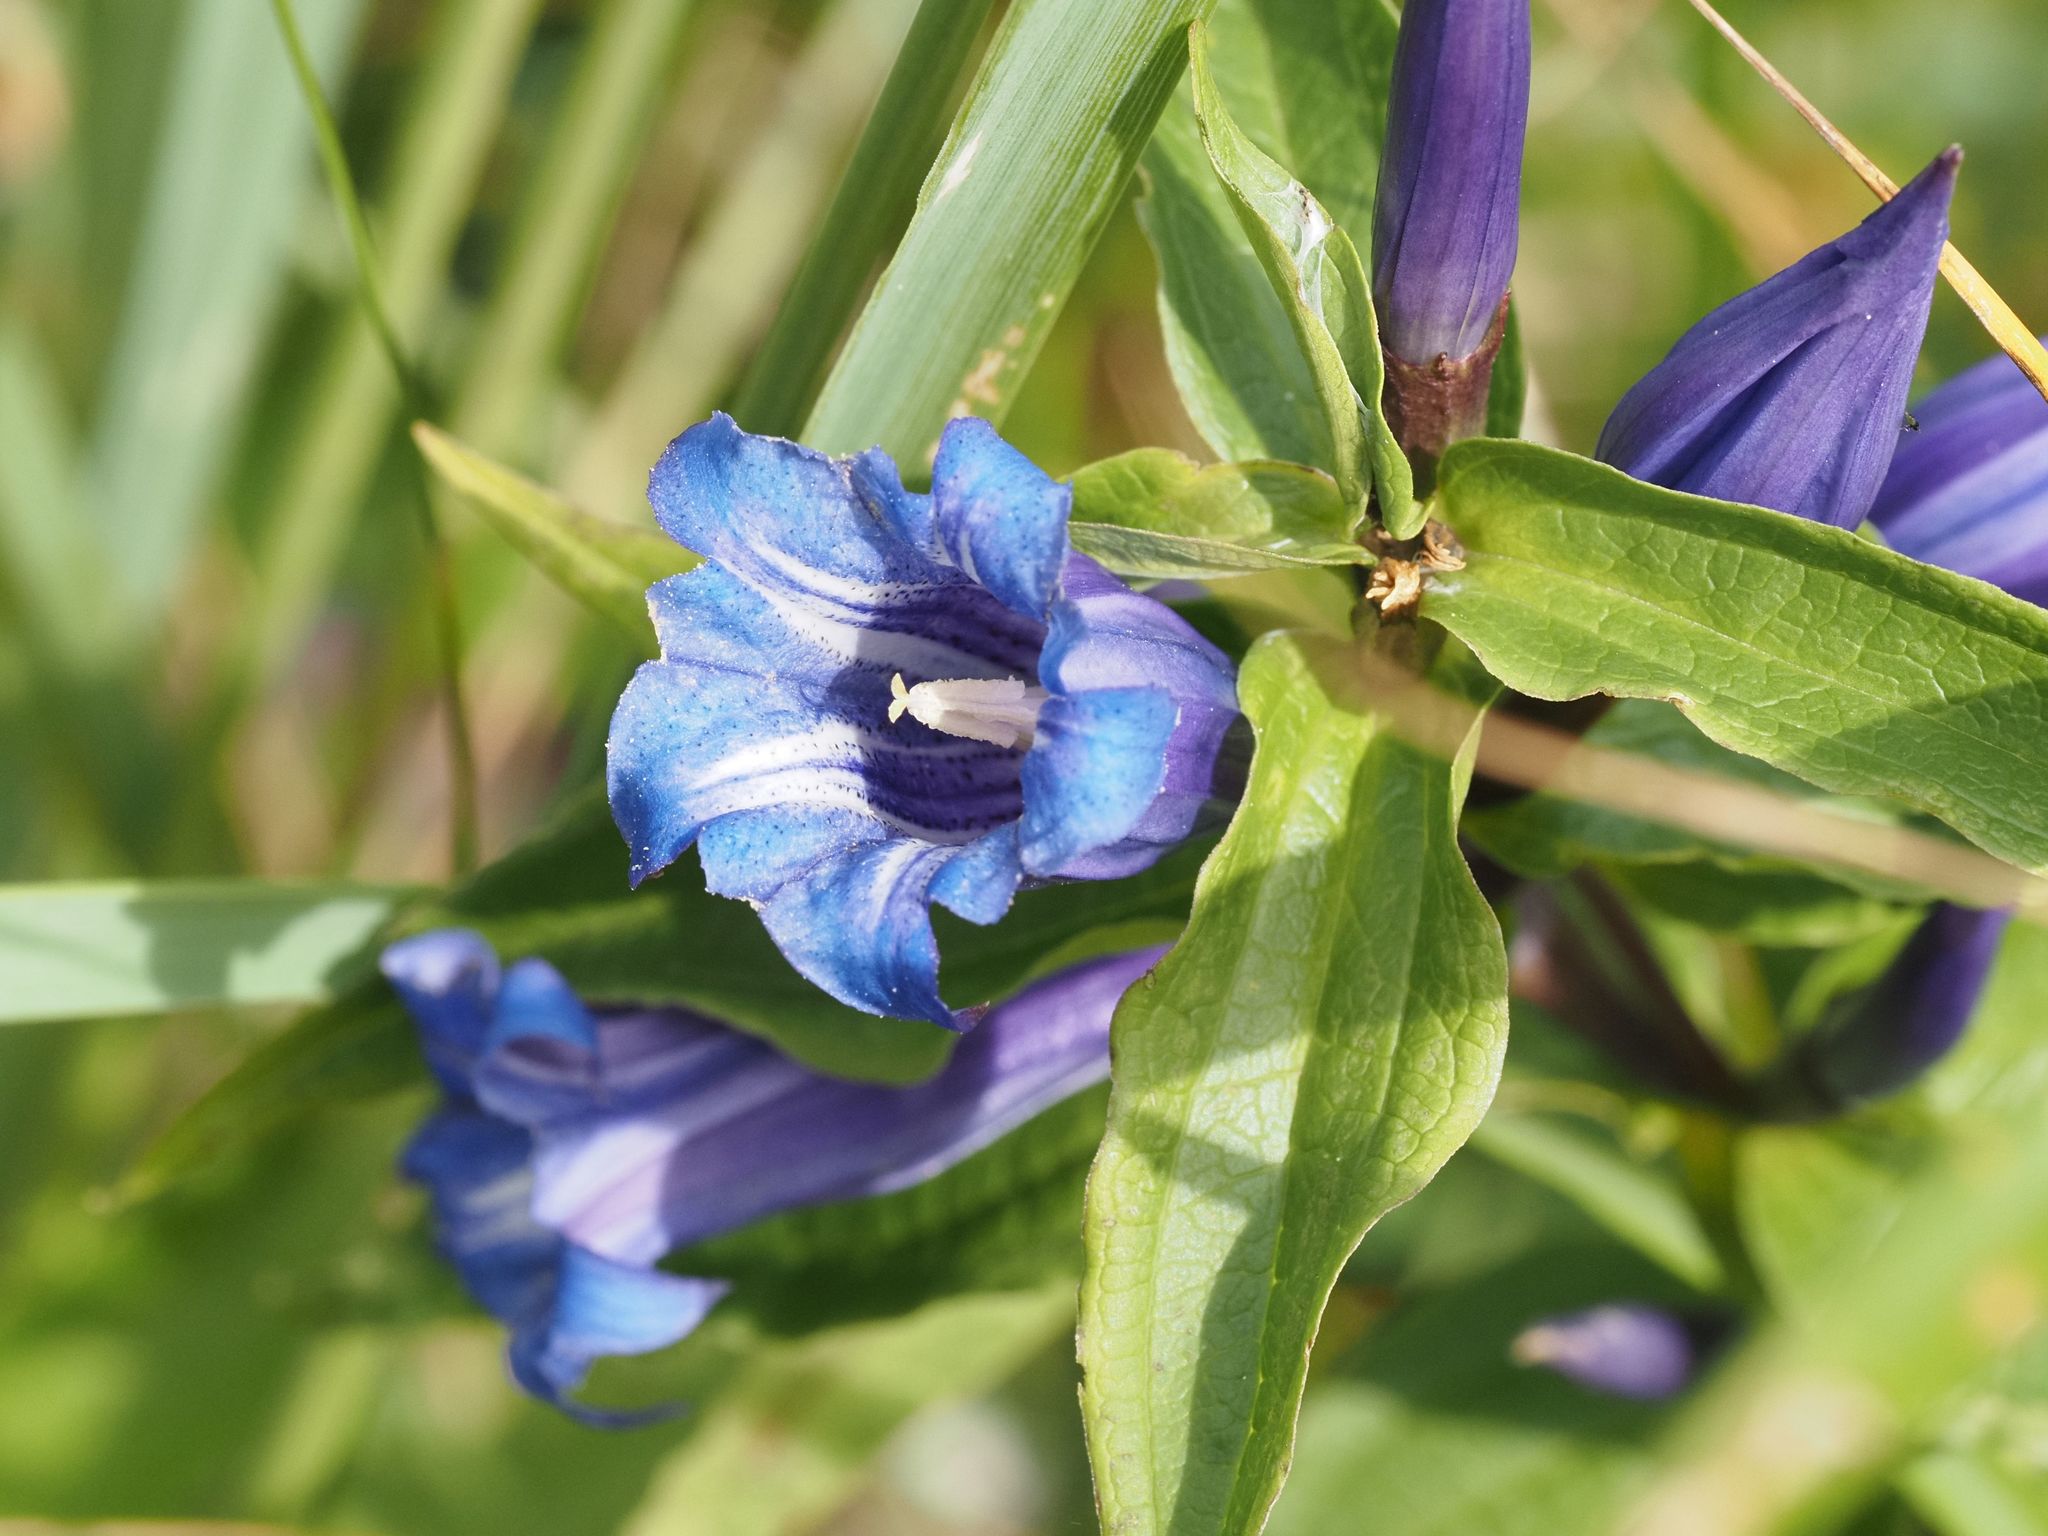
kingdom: Plantae
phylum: Tracheophyta
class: Magnoliopsida
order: Gentianales
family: Gentianaceae
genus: Gentiana
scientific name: Gentiana asclepiadea
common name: Willow gentian
